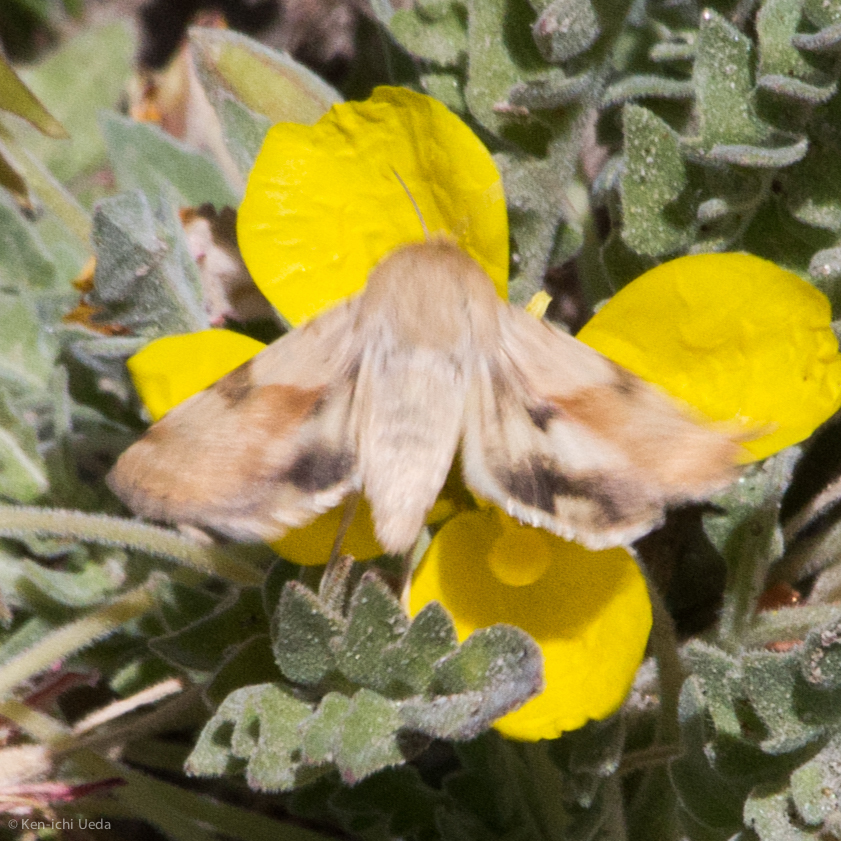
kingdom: Animalia
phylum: Arthropoda
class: Insecta
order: Lepidoptera
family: Noctuidae
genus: Heliothis
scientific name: Heliothis phloxiphaga
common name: Darker spotted straw moth
